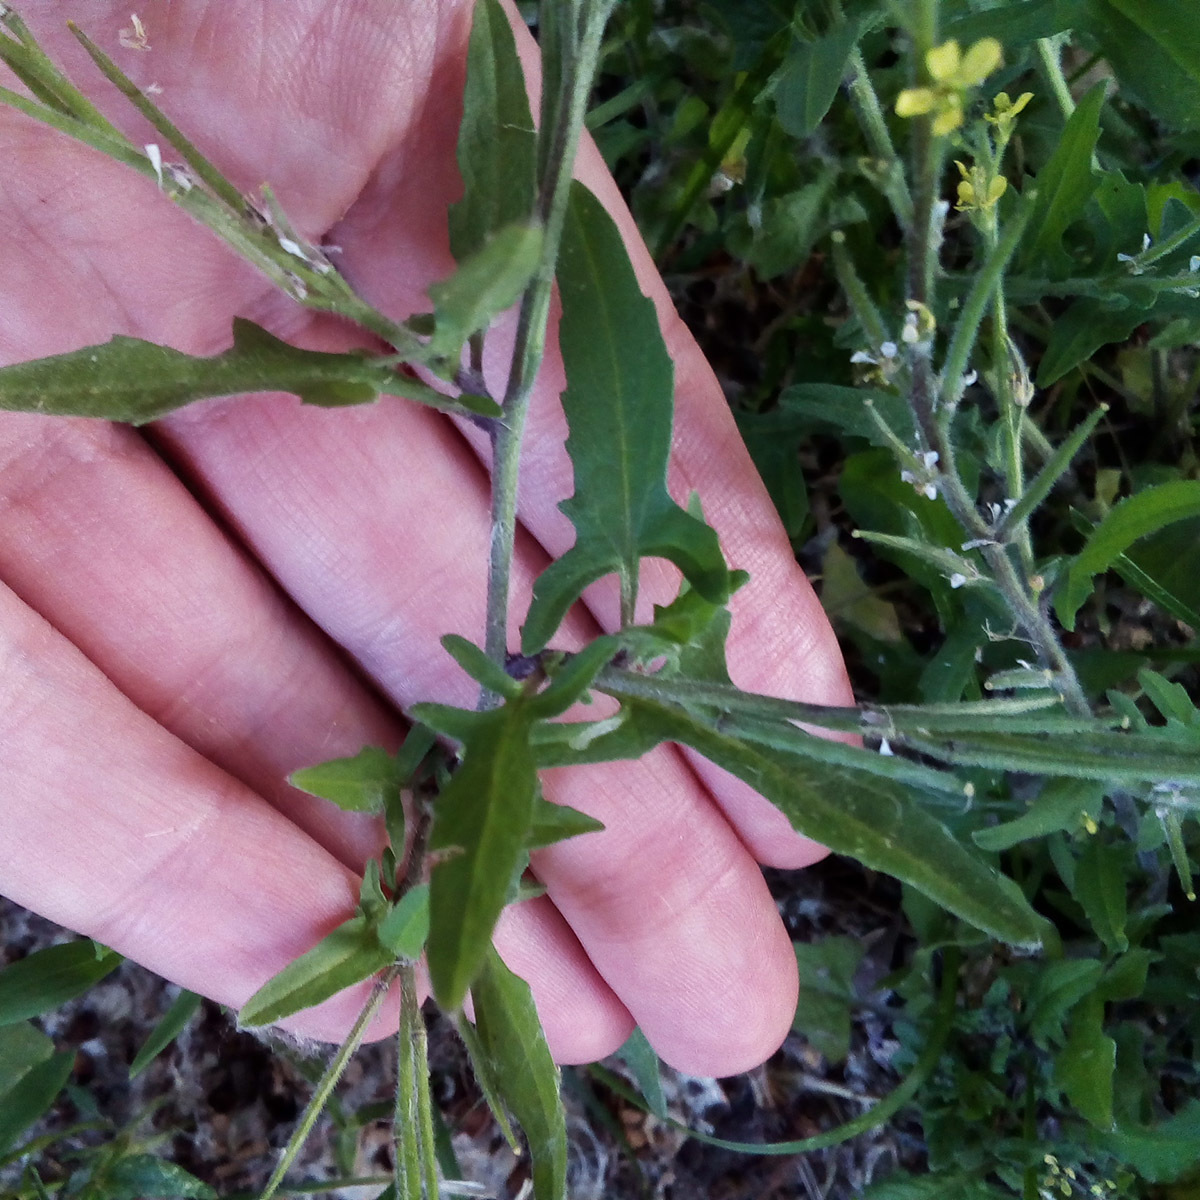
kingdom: Plantae
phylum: Tracheophyta
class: Magnoliopsida
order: Brassicales
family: Brassicaceae
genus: Sisymbrium
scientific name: Sisymbrium officinale
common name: Hedge mustard
